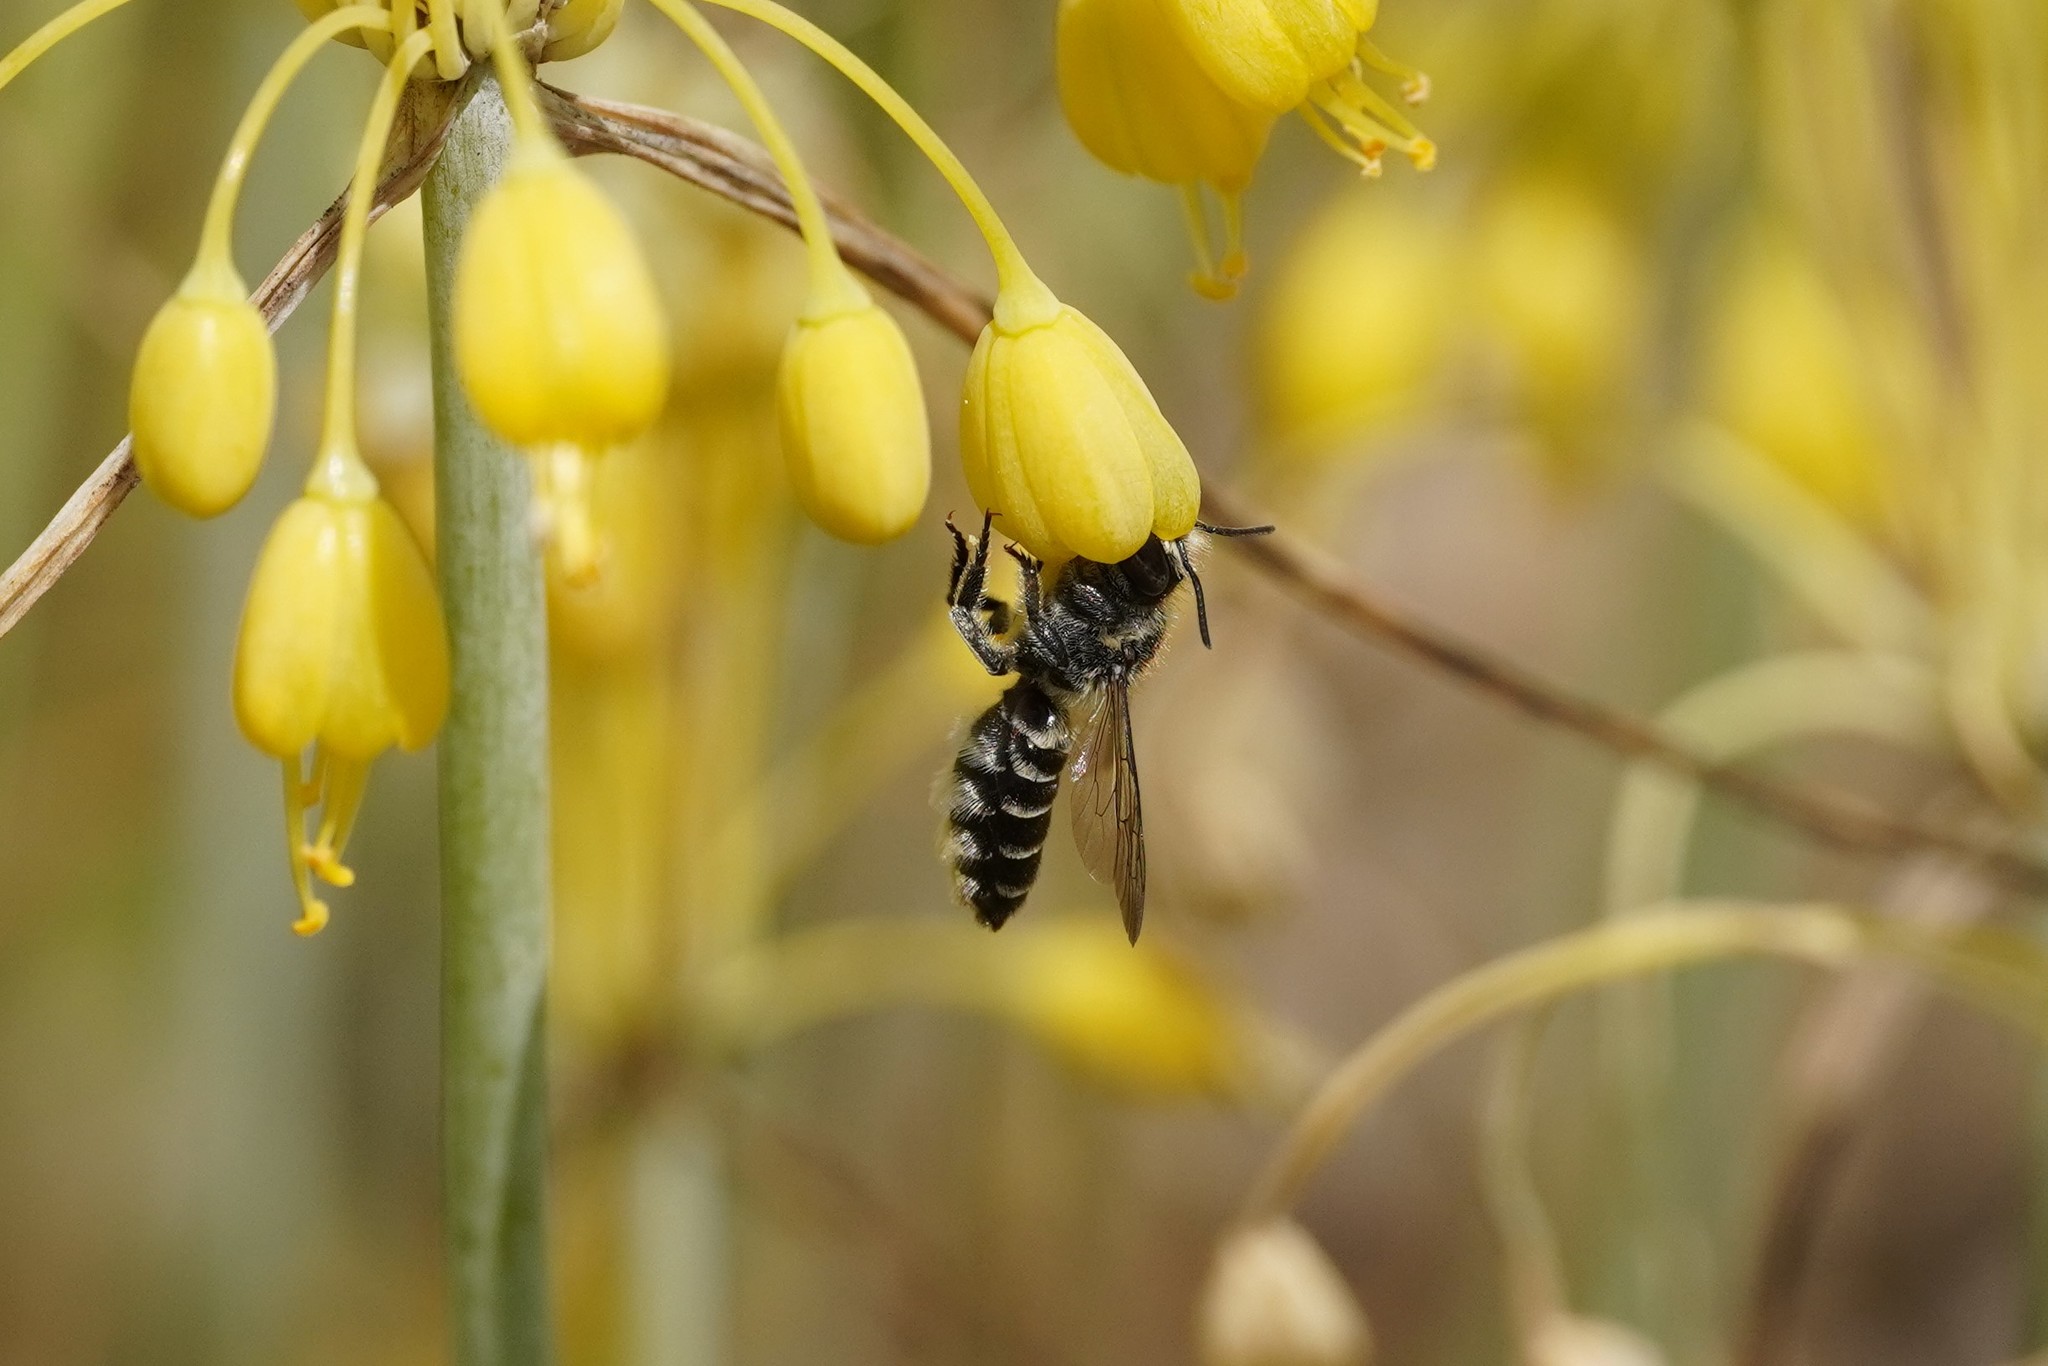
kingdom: Animalia
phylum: Arthropoda
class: Insecta
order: Hymenoptera
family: Megachilidae
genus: Megachile
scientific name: Megachile rotundata
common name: Alfalfa leafcutting bee
